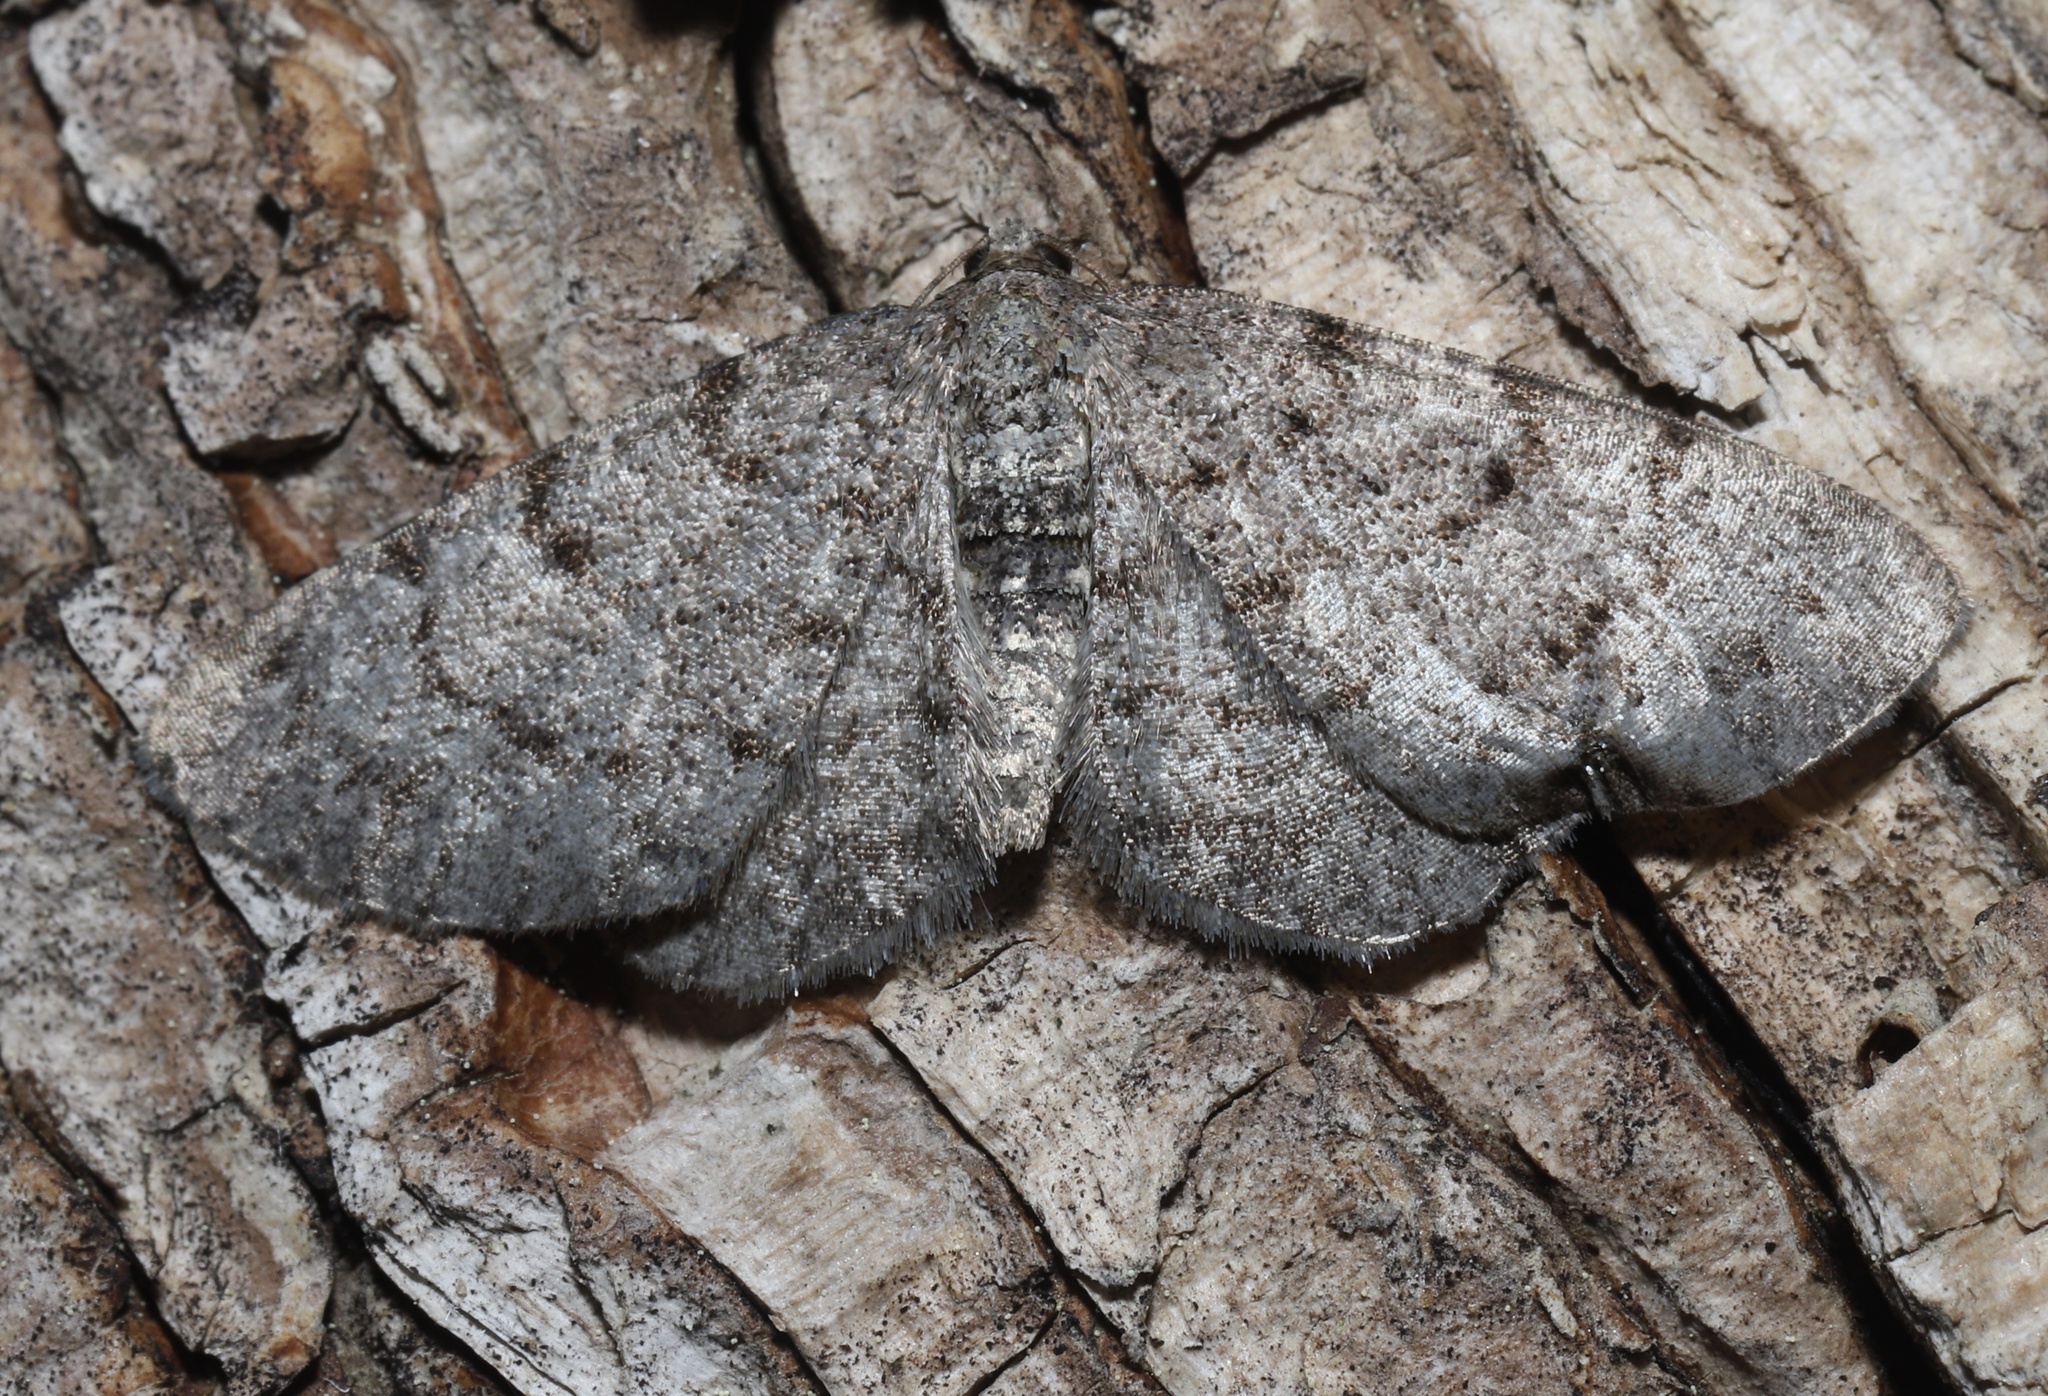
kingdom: Animalia
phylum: Arthropoda
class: Insecta
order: Lepidoptera
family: Geometridae
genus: Aethalura
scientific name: Aethalura intertexta
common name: Four-barred gray
